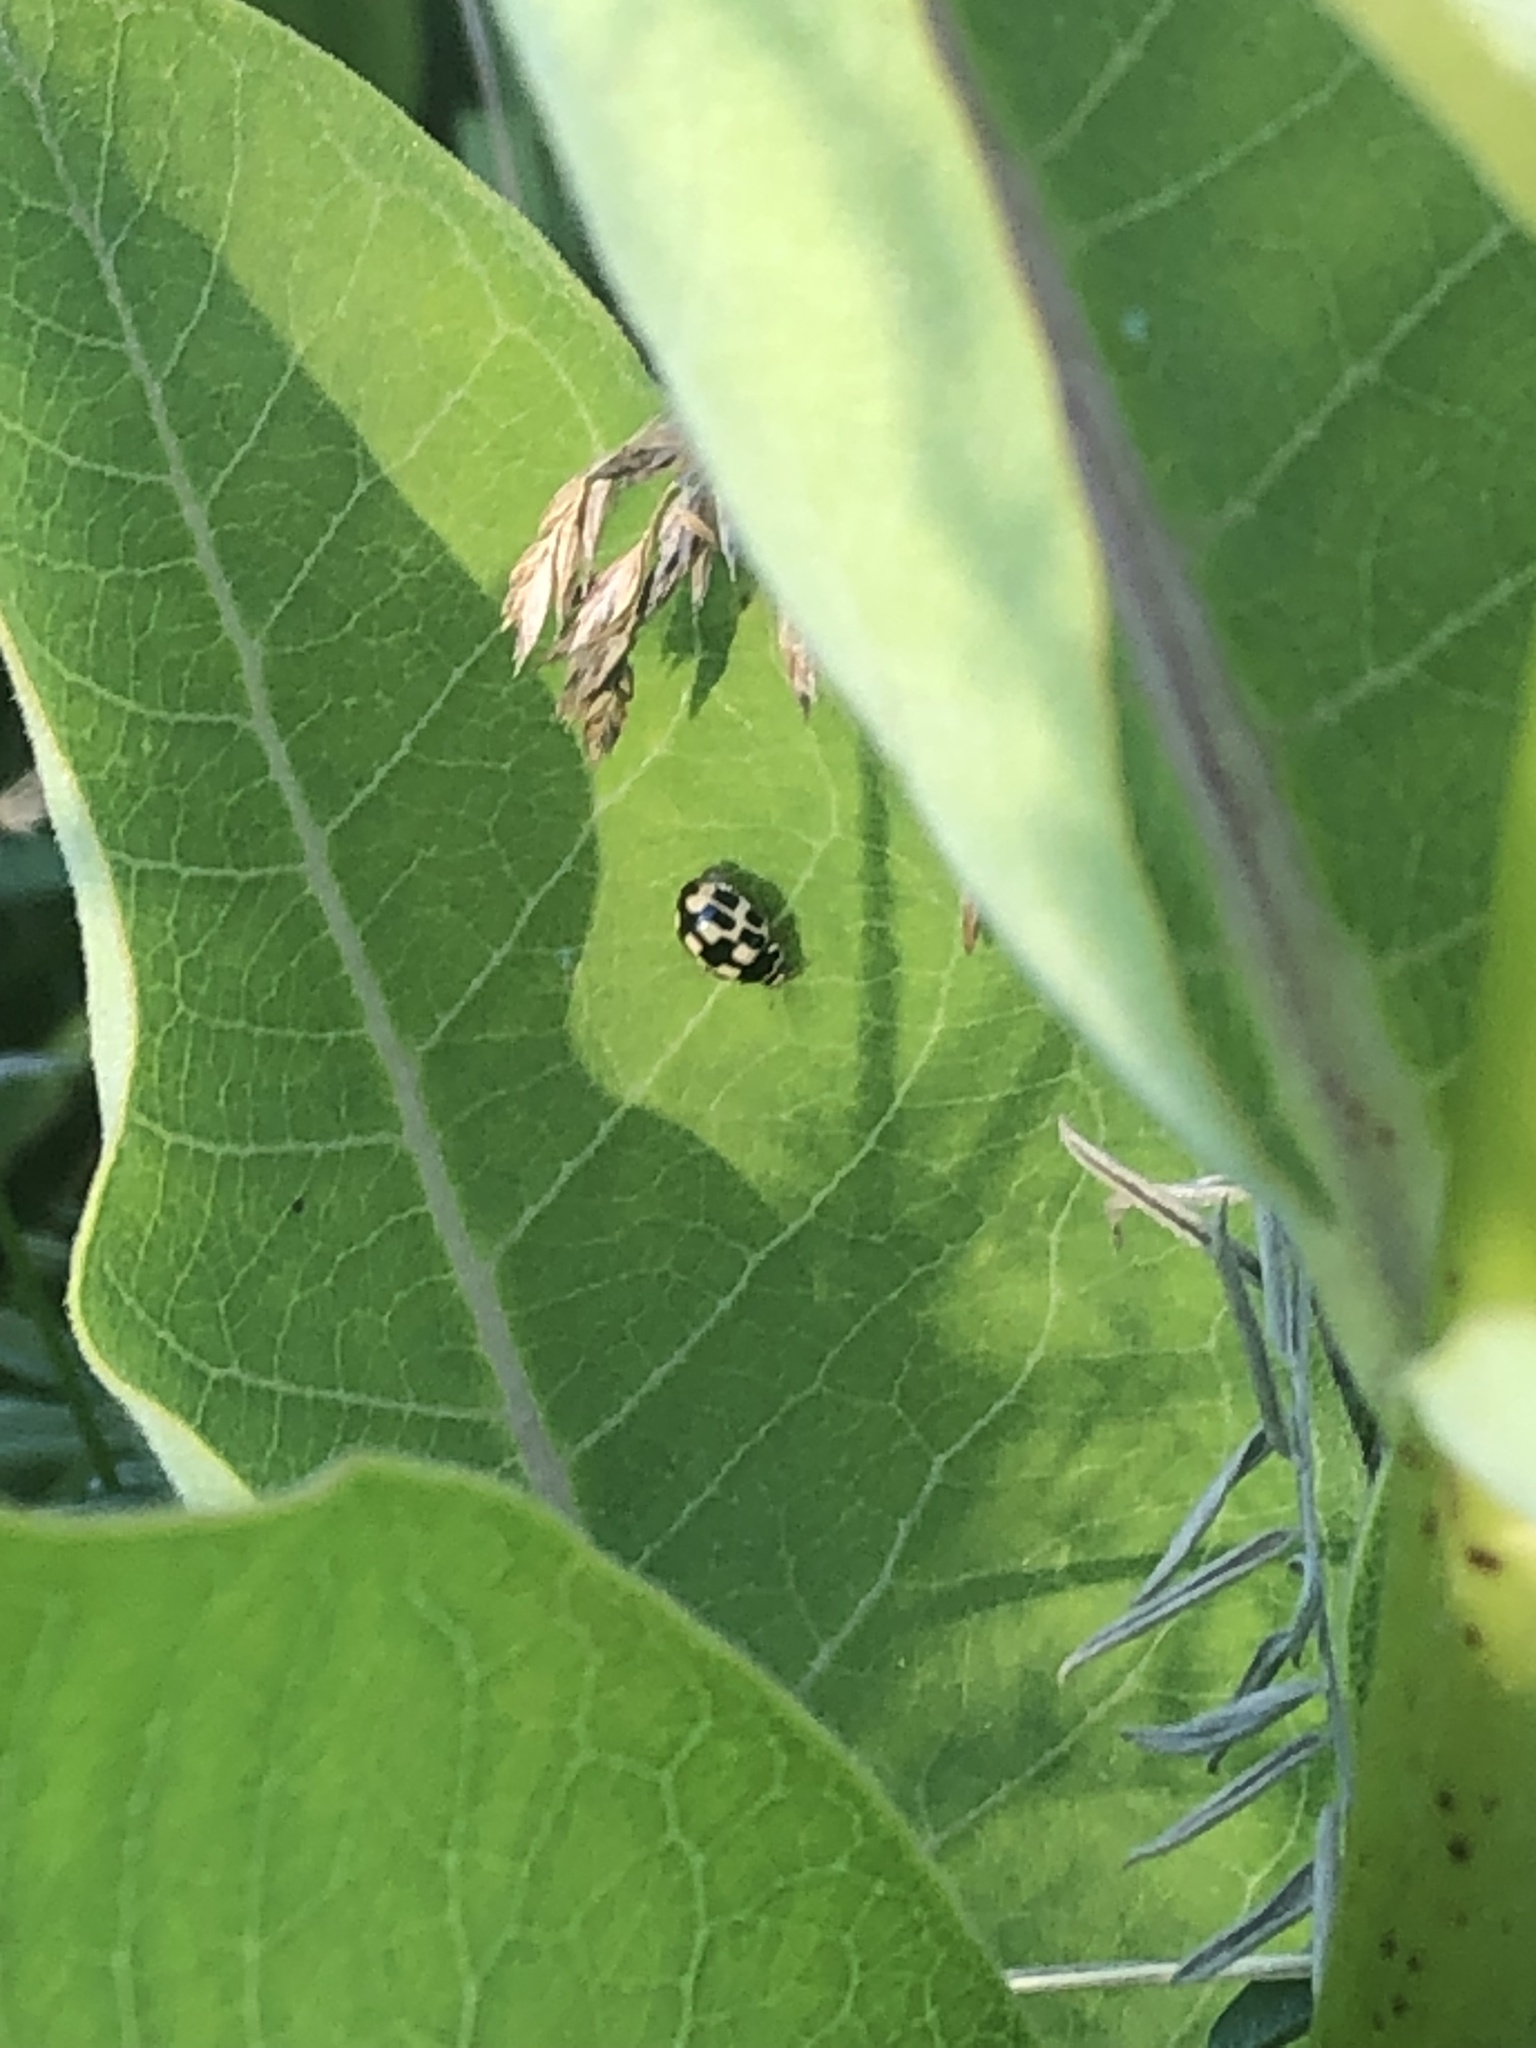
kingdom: Animalia
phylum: Arthropoda
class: Insecta
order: Coleoptera
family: Coccinellidae
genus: Propylaea
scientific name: Propylaea quatuordecimpunctata
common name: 14-spotted ladybird beetle
